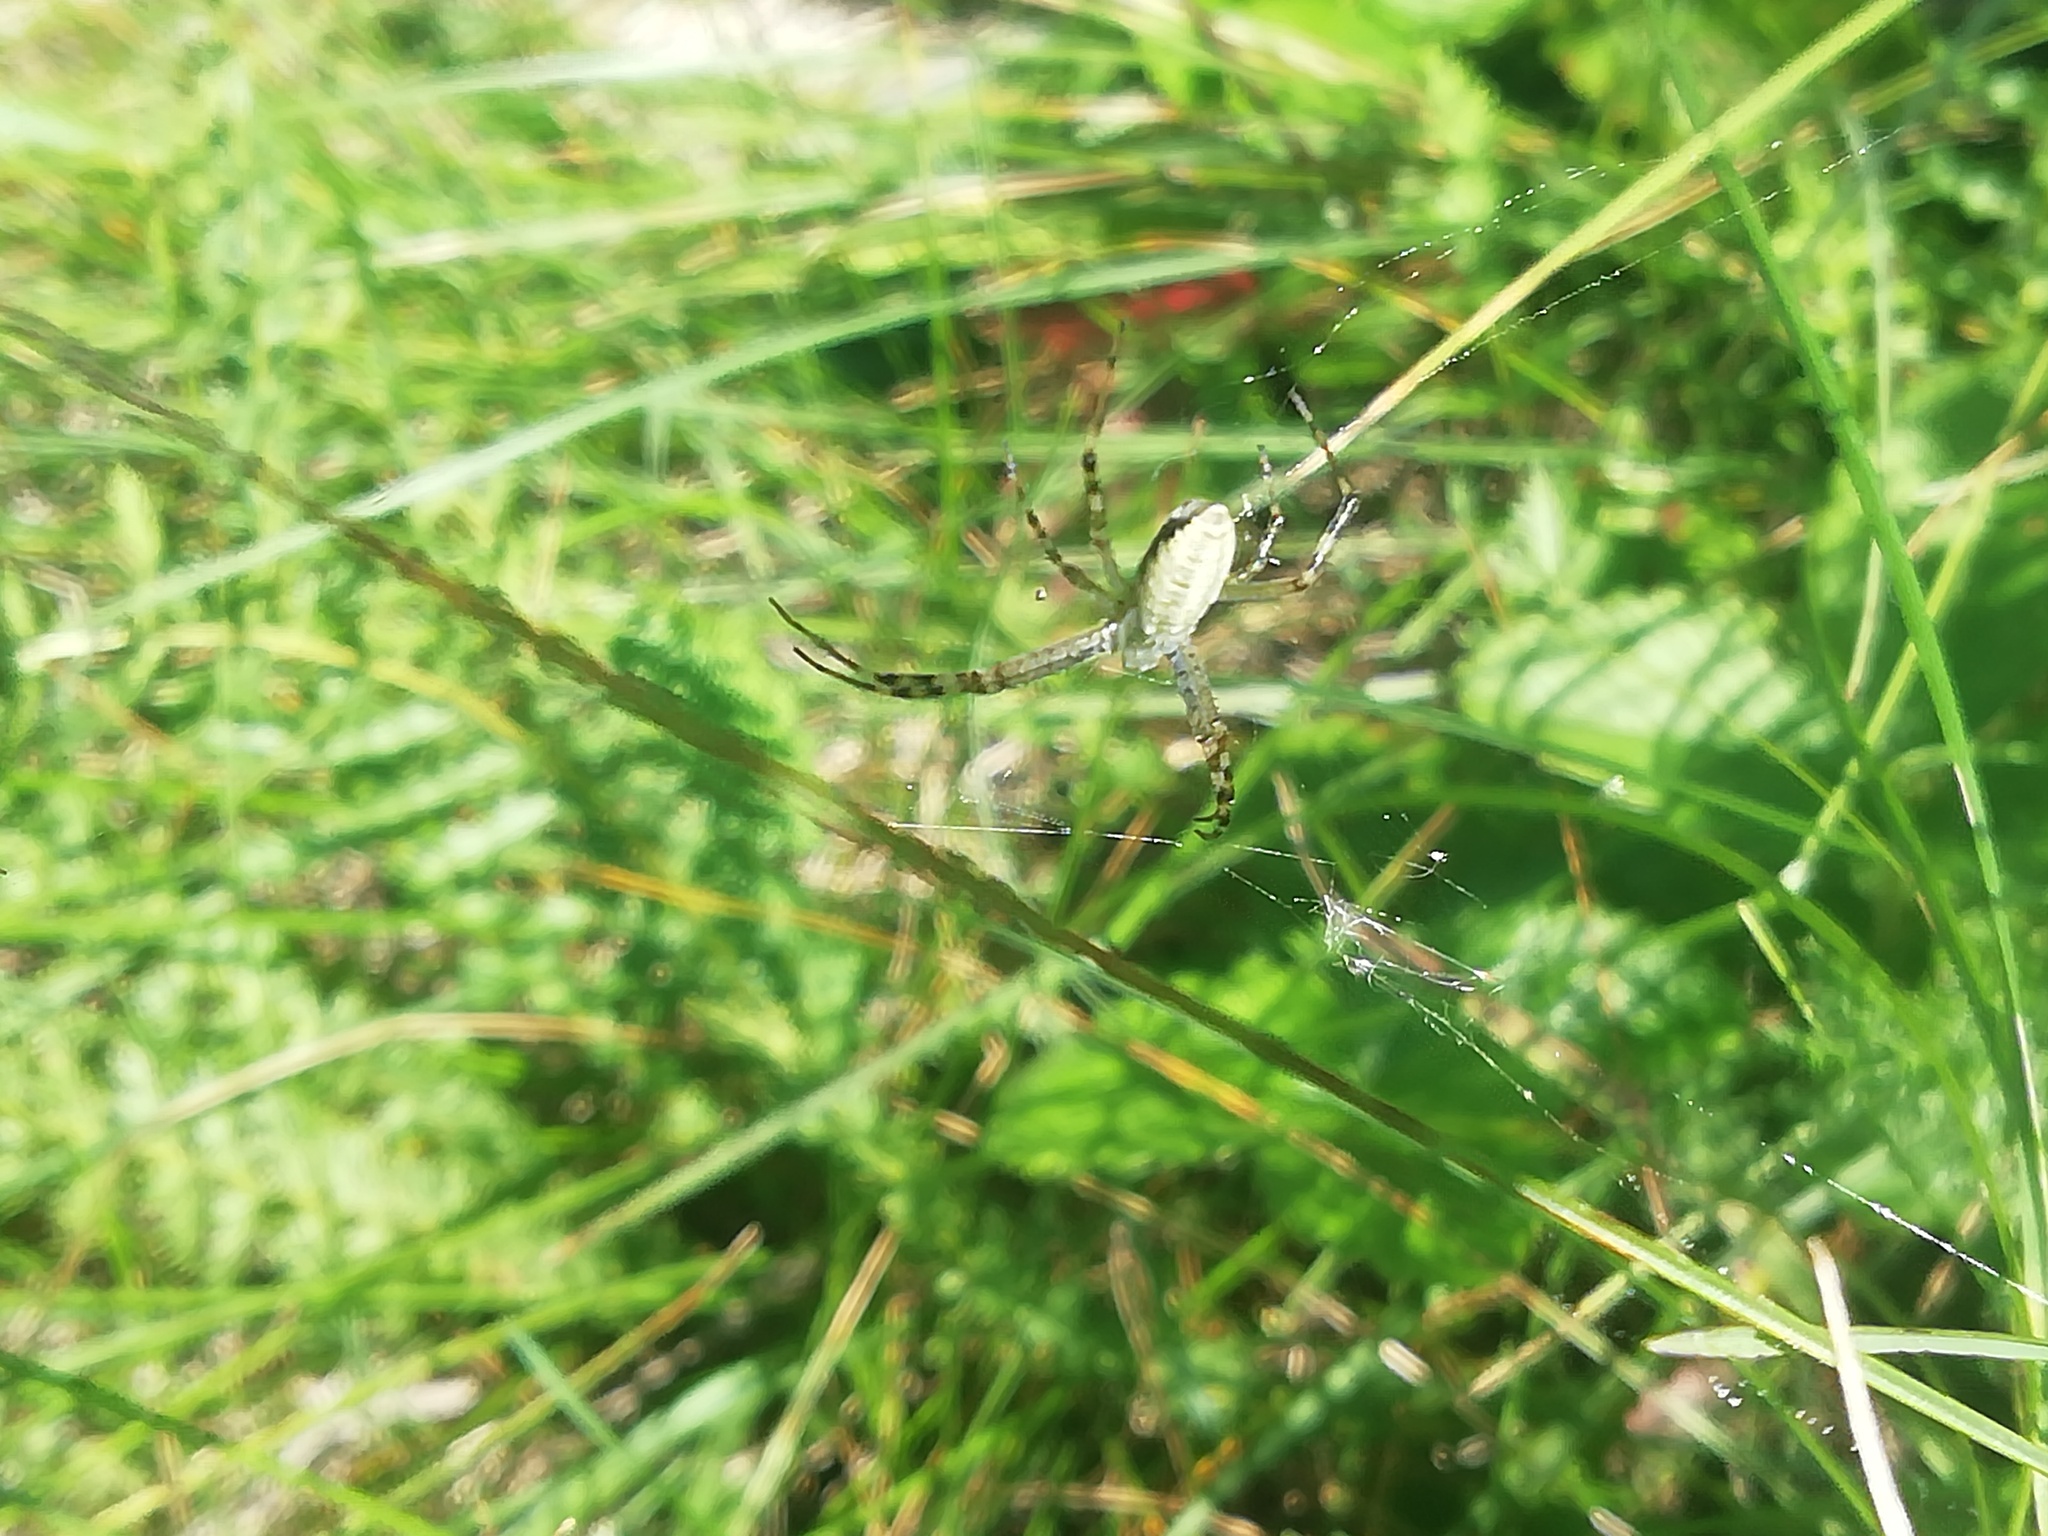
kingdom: Animalia
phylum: Arthropoda
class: Arachnida
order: Araneae
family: Araneidae
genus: Argiope
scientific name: Argiope bruennichi
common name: Wasp spider
